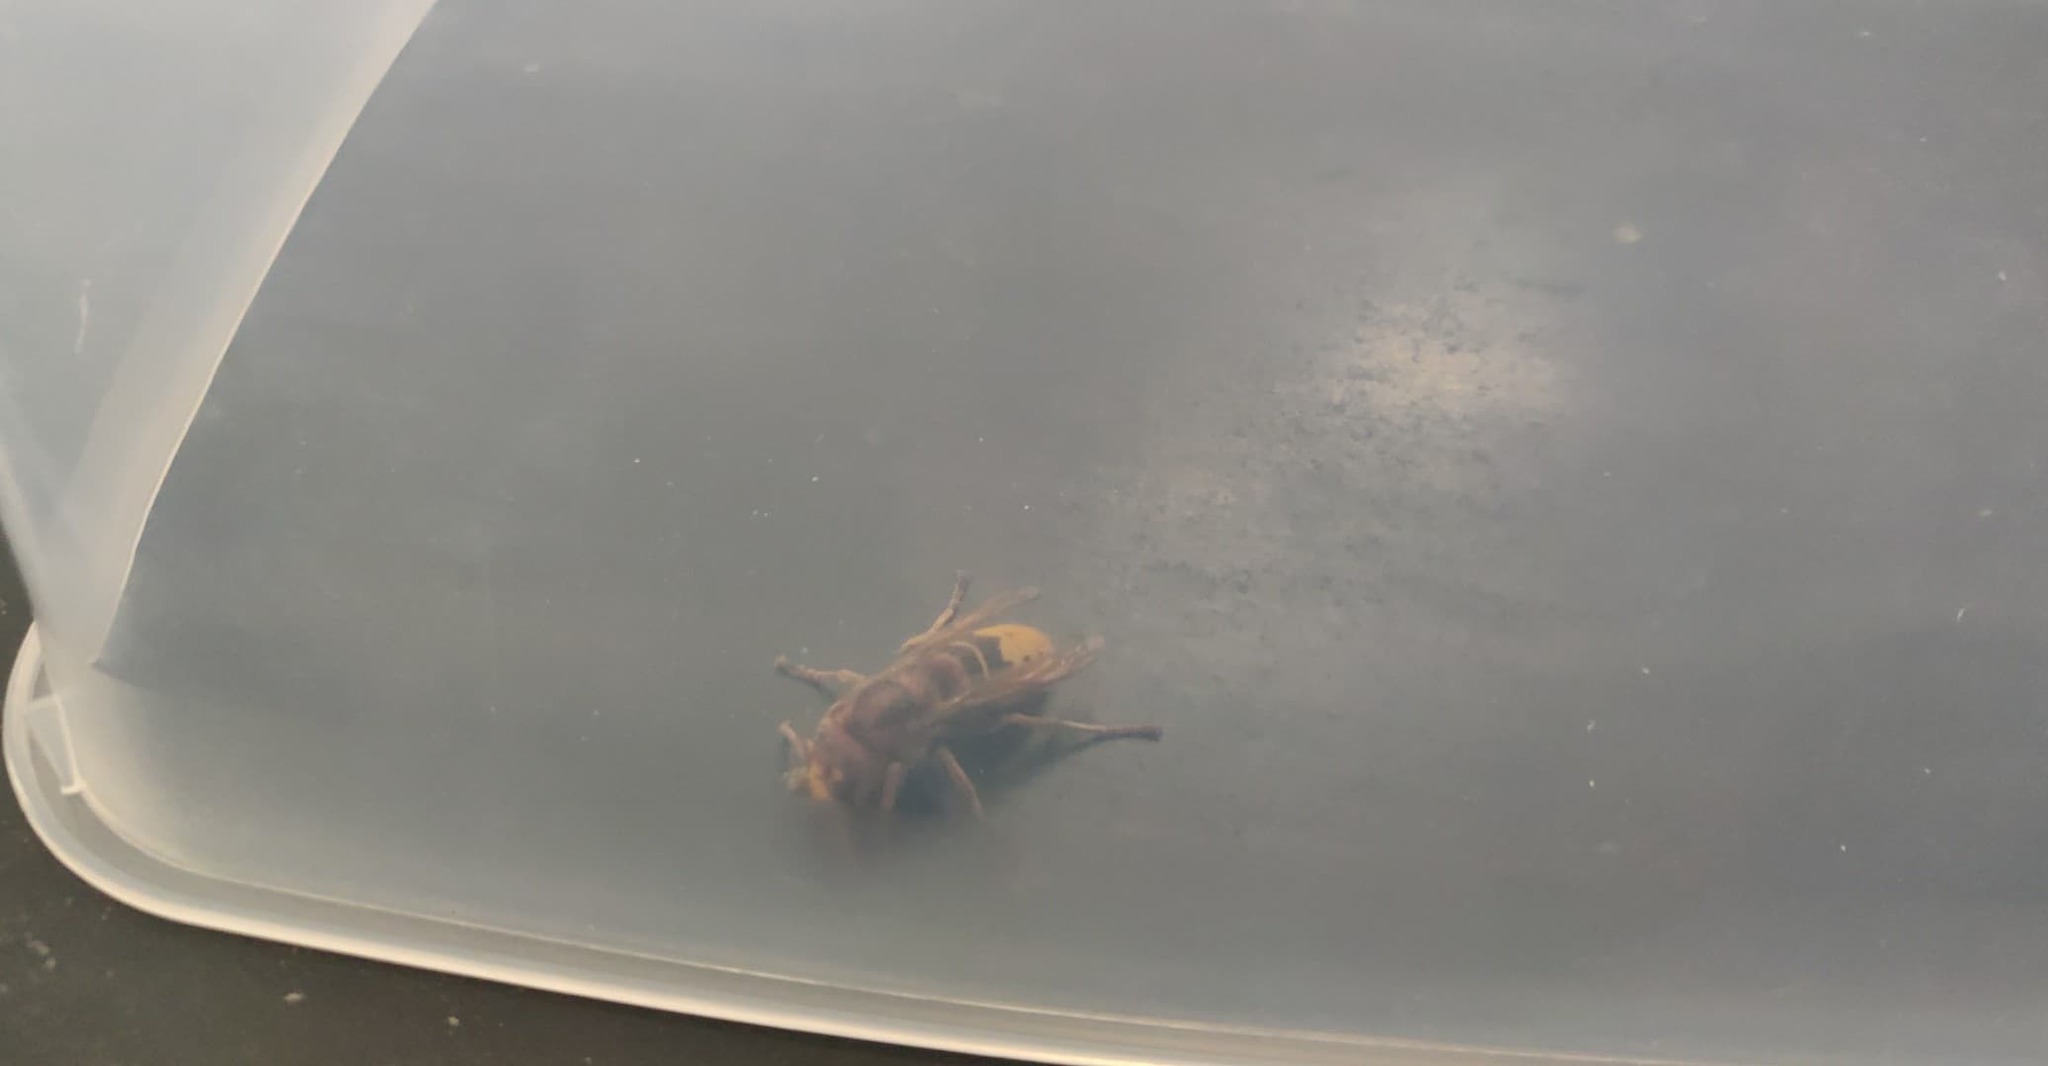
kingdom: Animalia
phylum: Arthropoda
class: Insecta
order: Hymenoptera
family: Vespidae
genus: Vespa
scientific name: Vespa crabro
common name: Hornet
